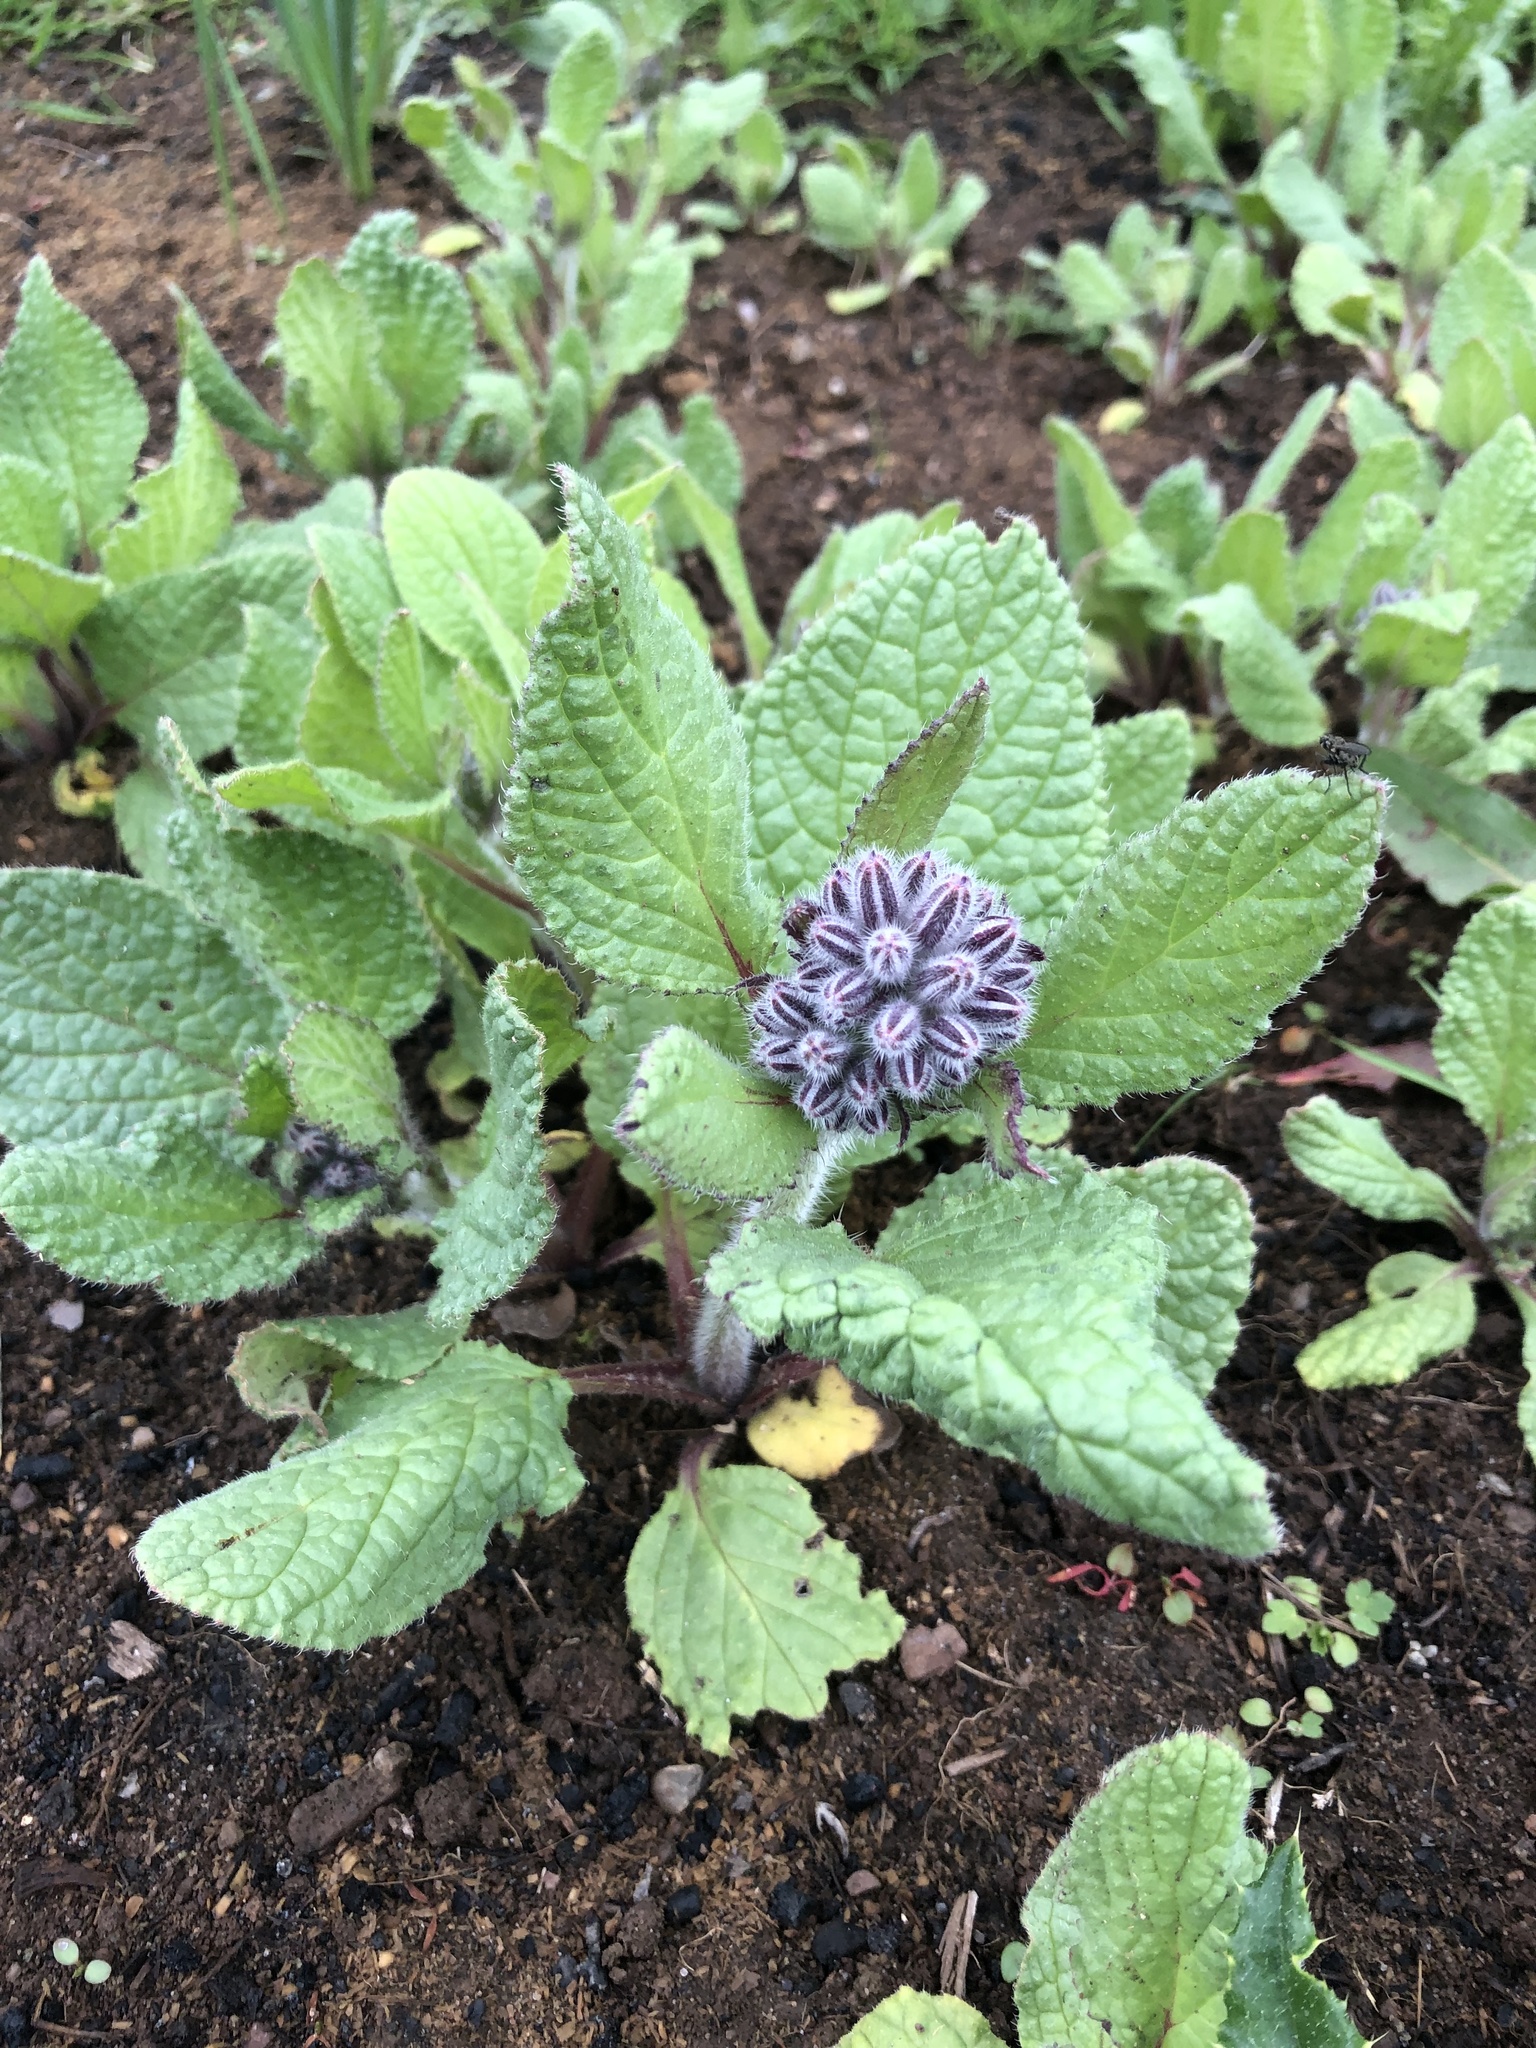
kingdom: Plantae
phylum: Tracheophyta
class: Magnoliopsida
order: Boraginales
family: Boraginaceae
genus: Borago
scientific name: Borago officinalis
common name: Borage
